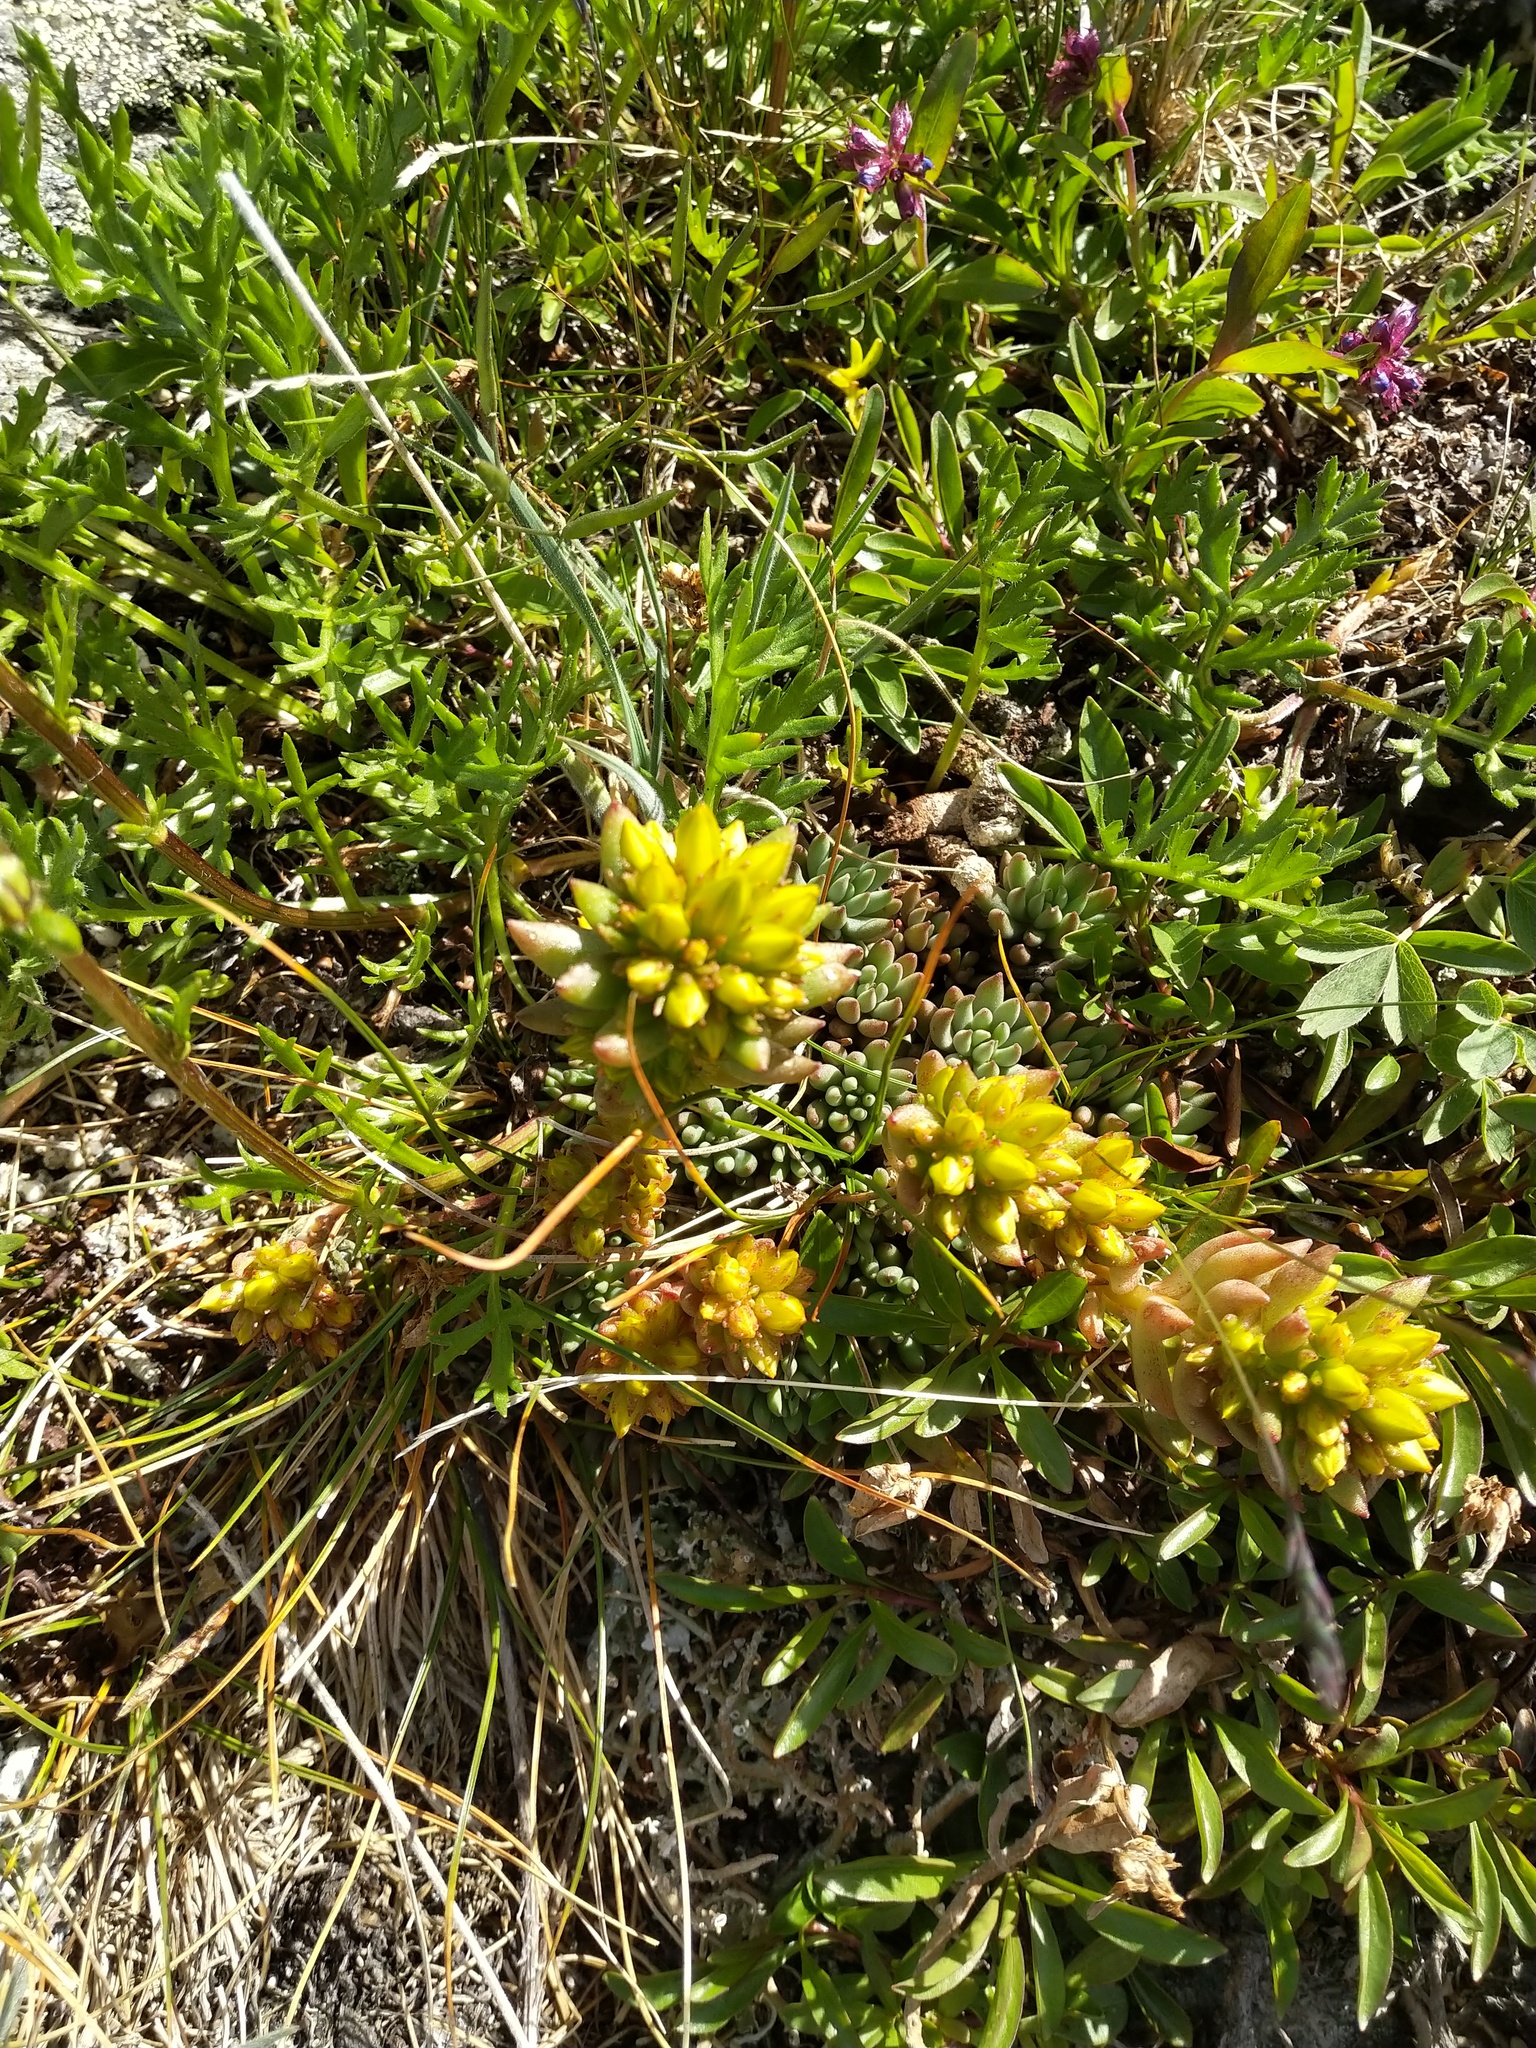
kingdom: Plantae
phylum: Tracheophyta
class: Magnoliopsida
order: Saxifragales
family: Crassulaceae
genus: Sedum
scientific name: Sedum lanceolatum
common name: Common stonecrop
